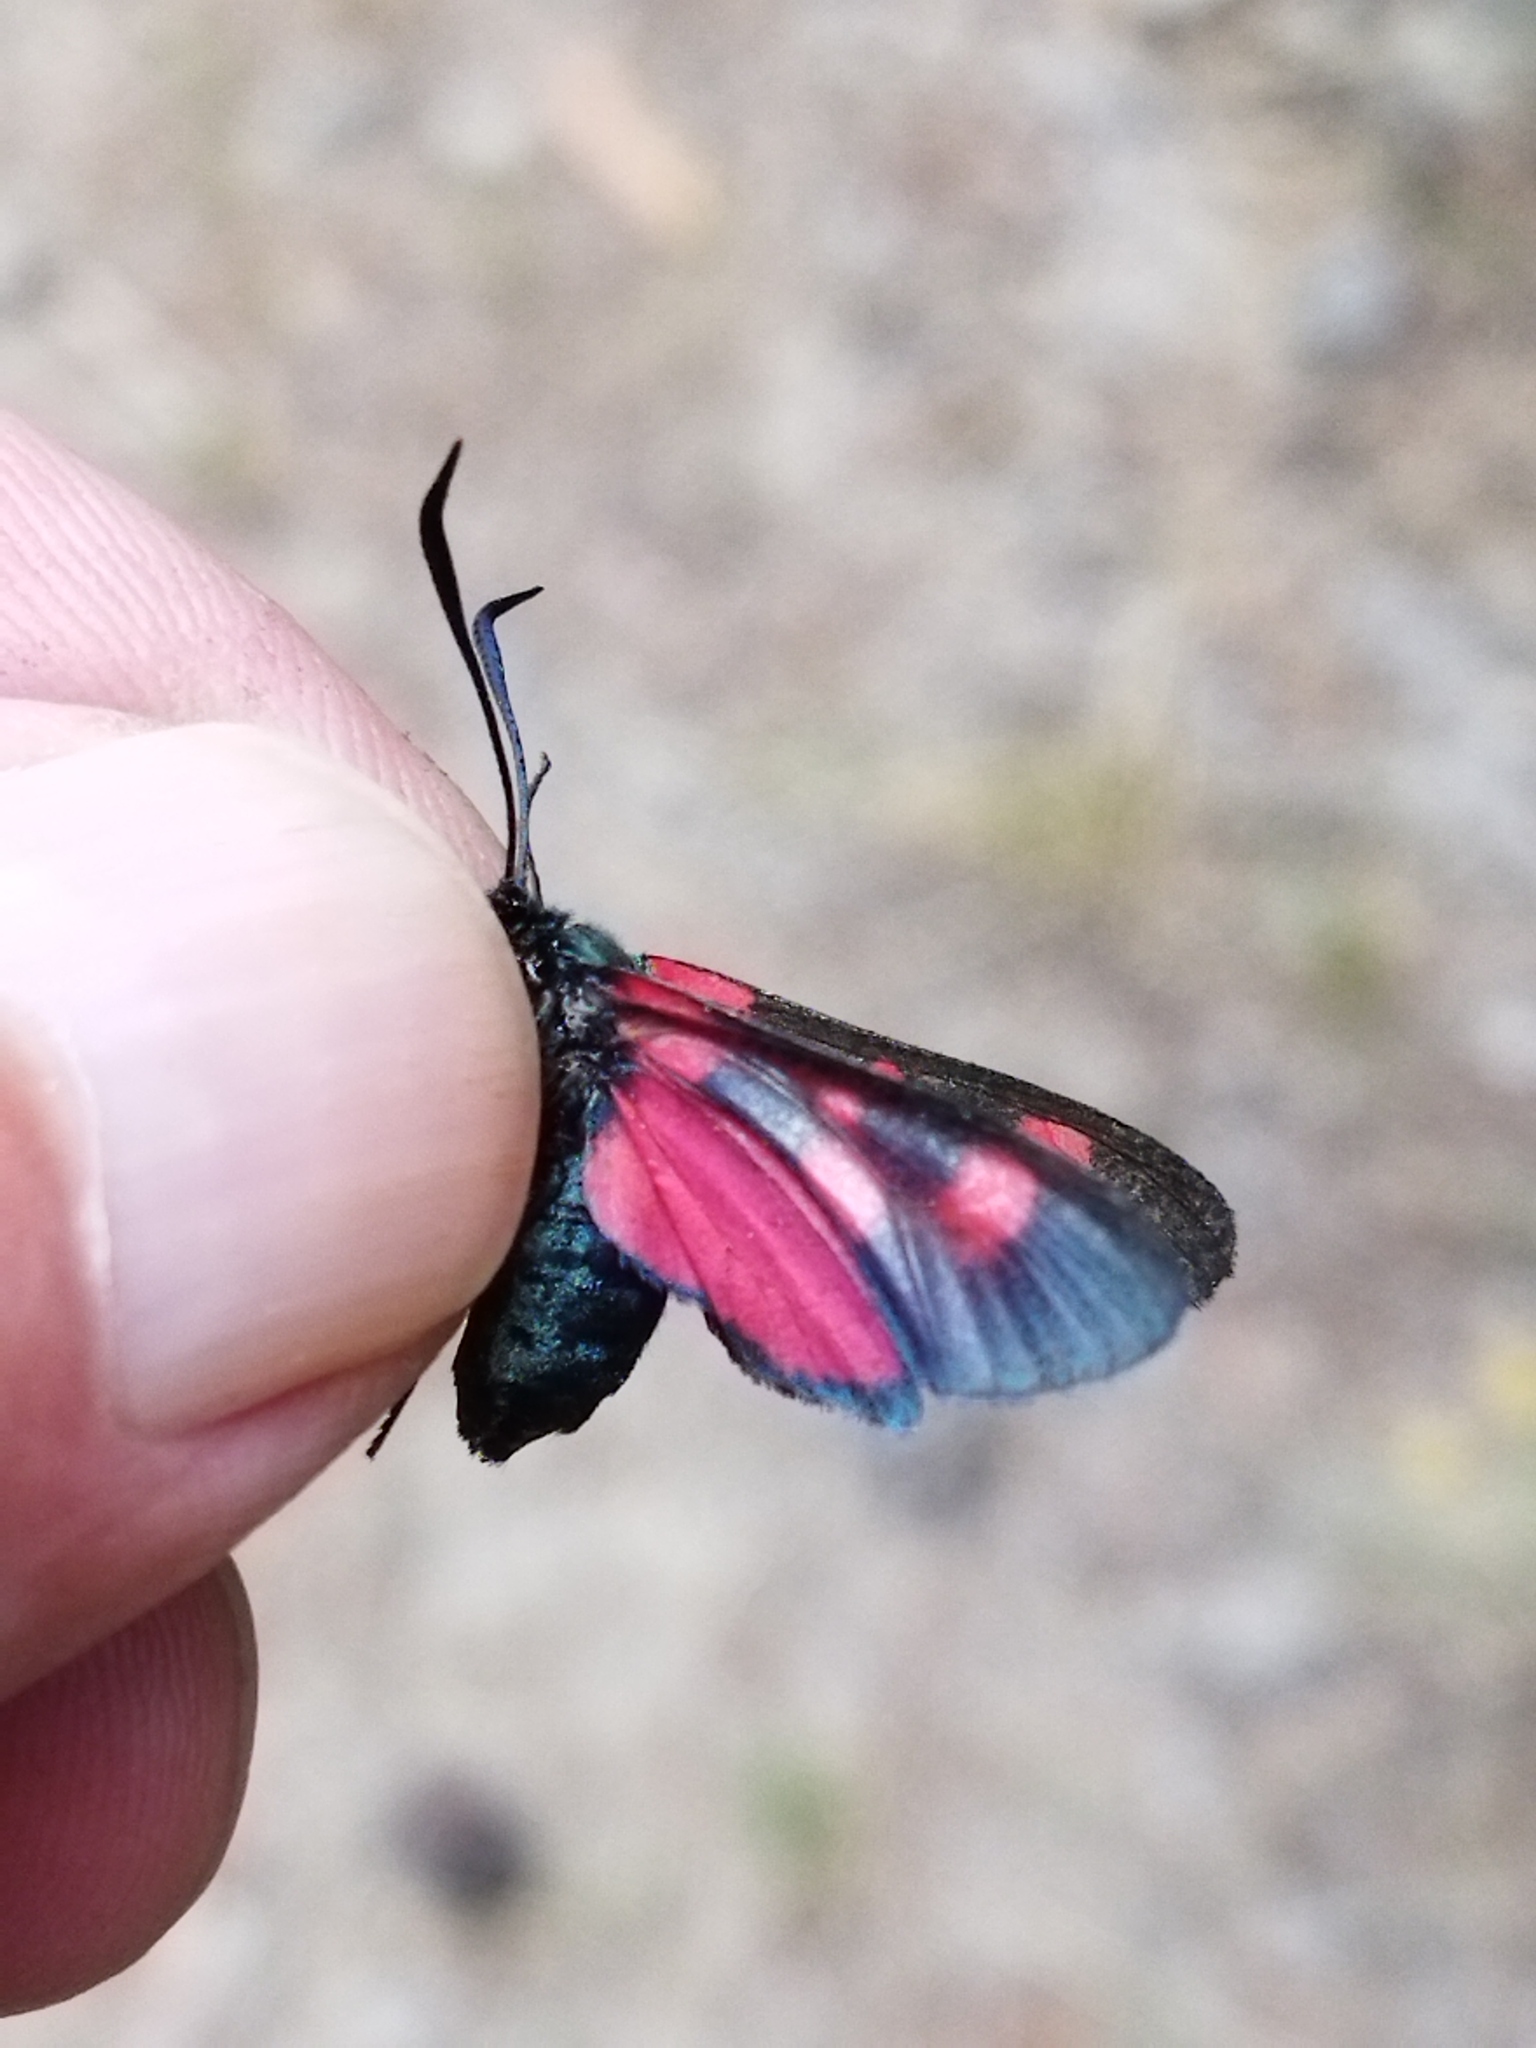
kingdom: Animalia
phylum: Arthropoda
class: Insecta
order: Lepidoptera
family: Zygaenidae
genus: Zygaena
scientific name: Zygaena lonicerae
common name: Narrow-bordered five-spot burnet
